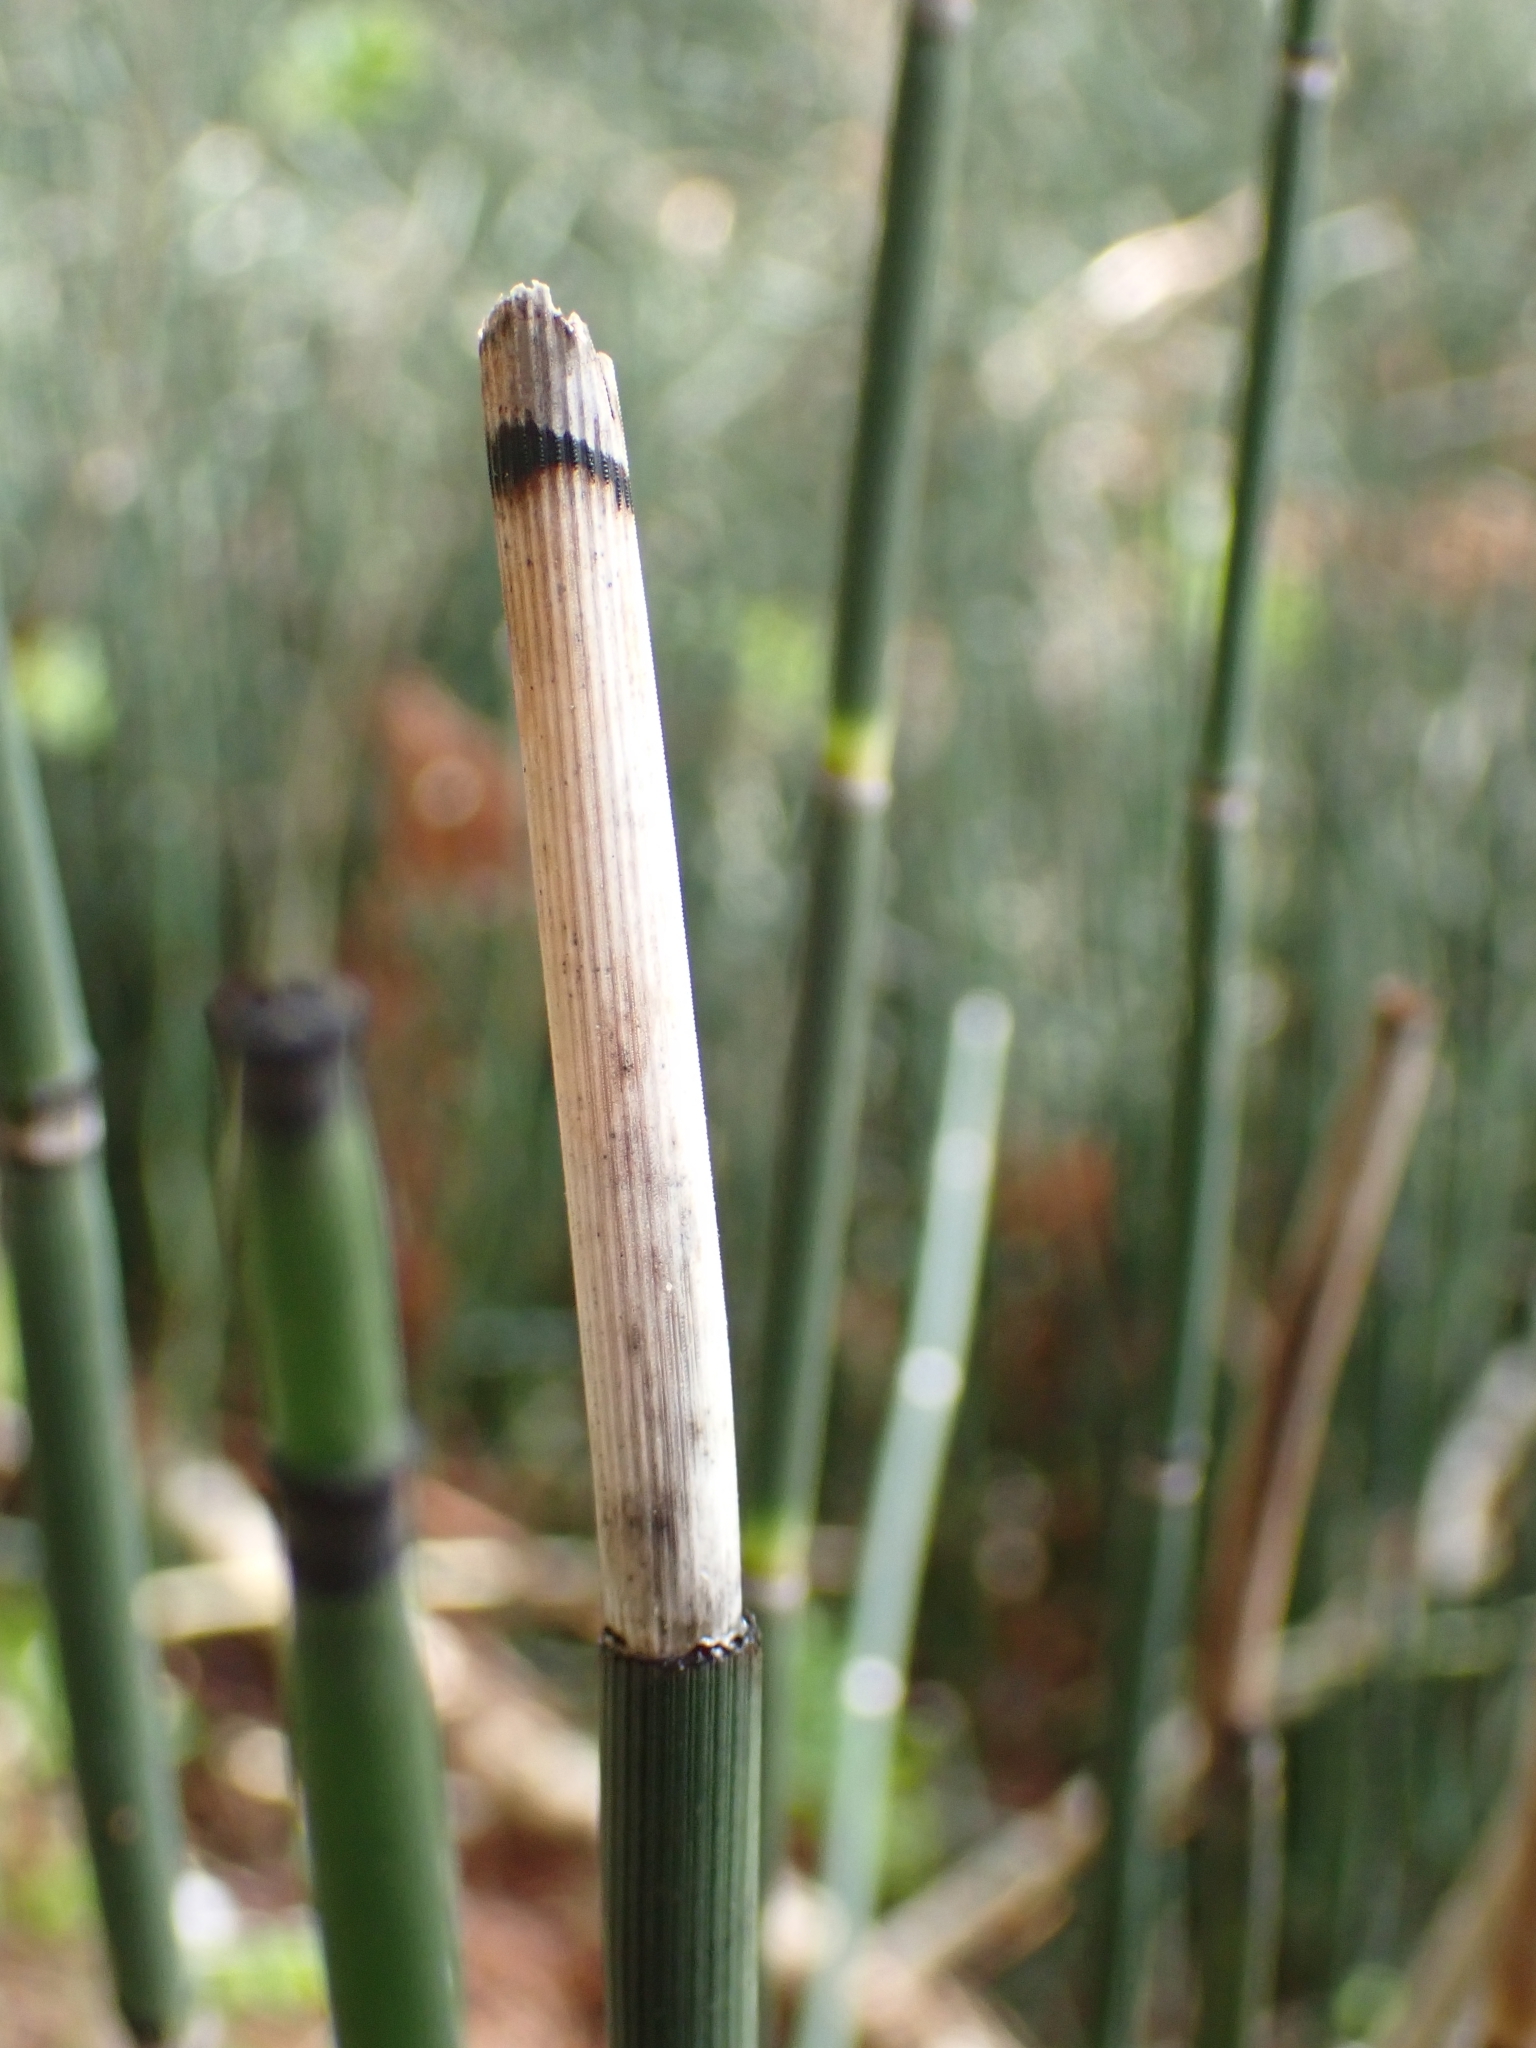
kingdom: Plantae
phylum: Tracheophyta
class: Polypodiopsida
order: Equisetales
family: Equisetaceae
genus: Equisetum
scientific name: Equisetum hyemale
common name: Rough horsetail
